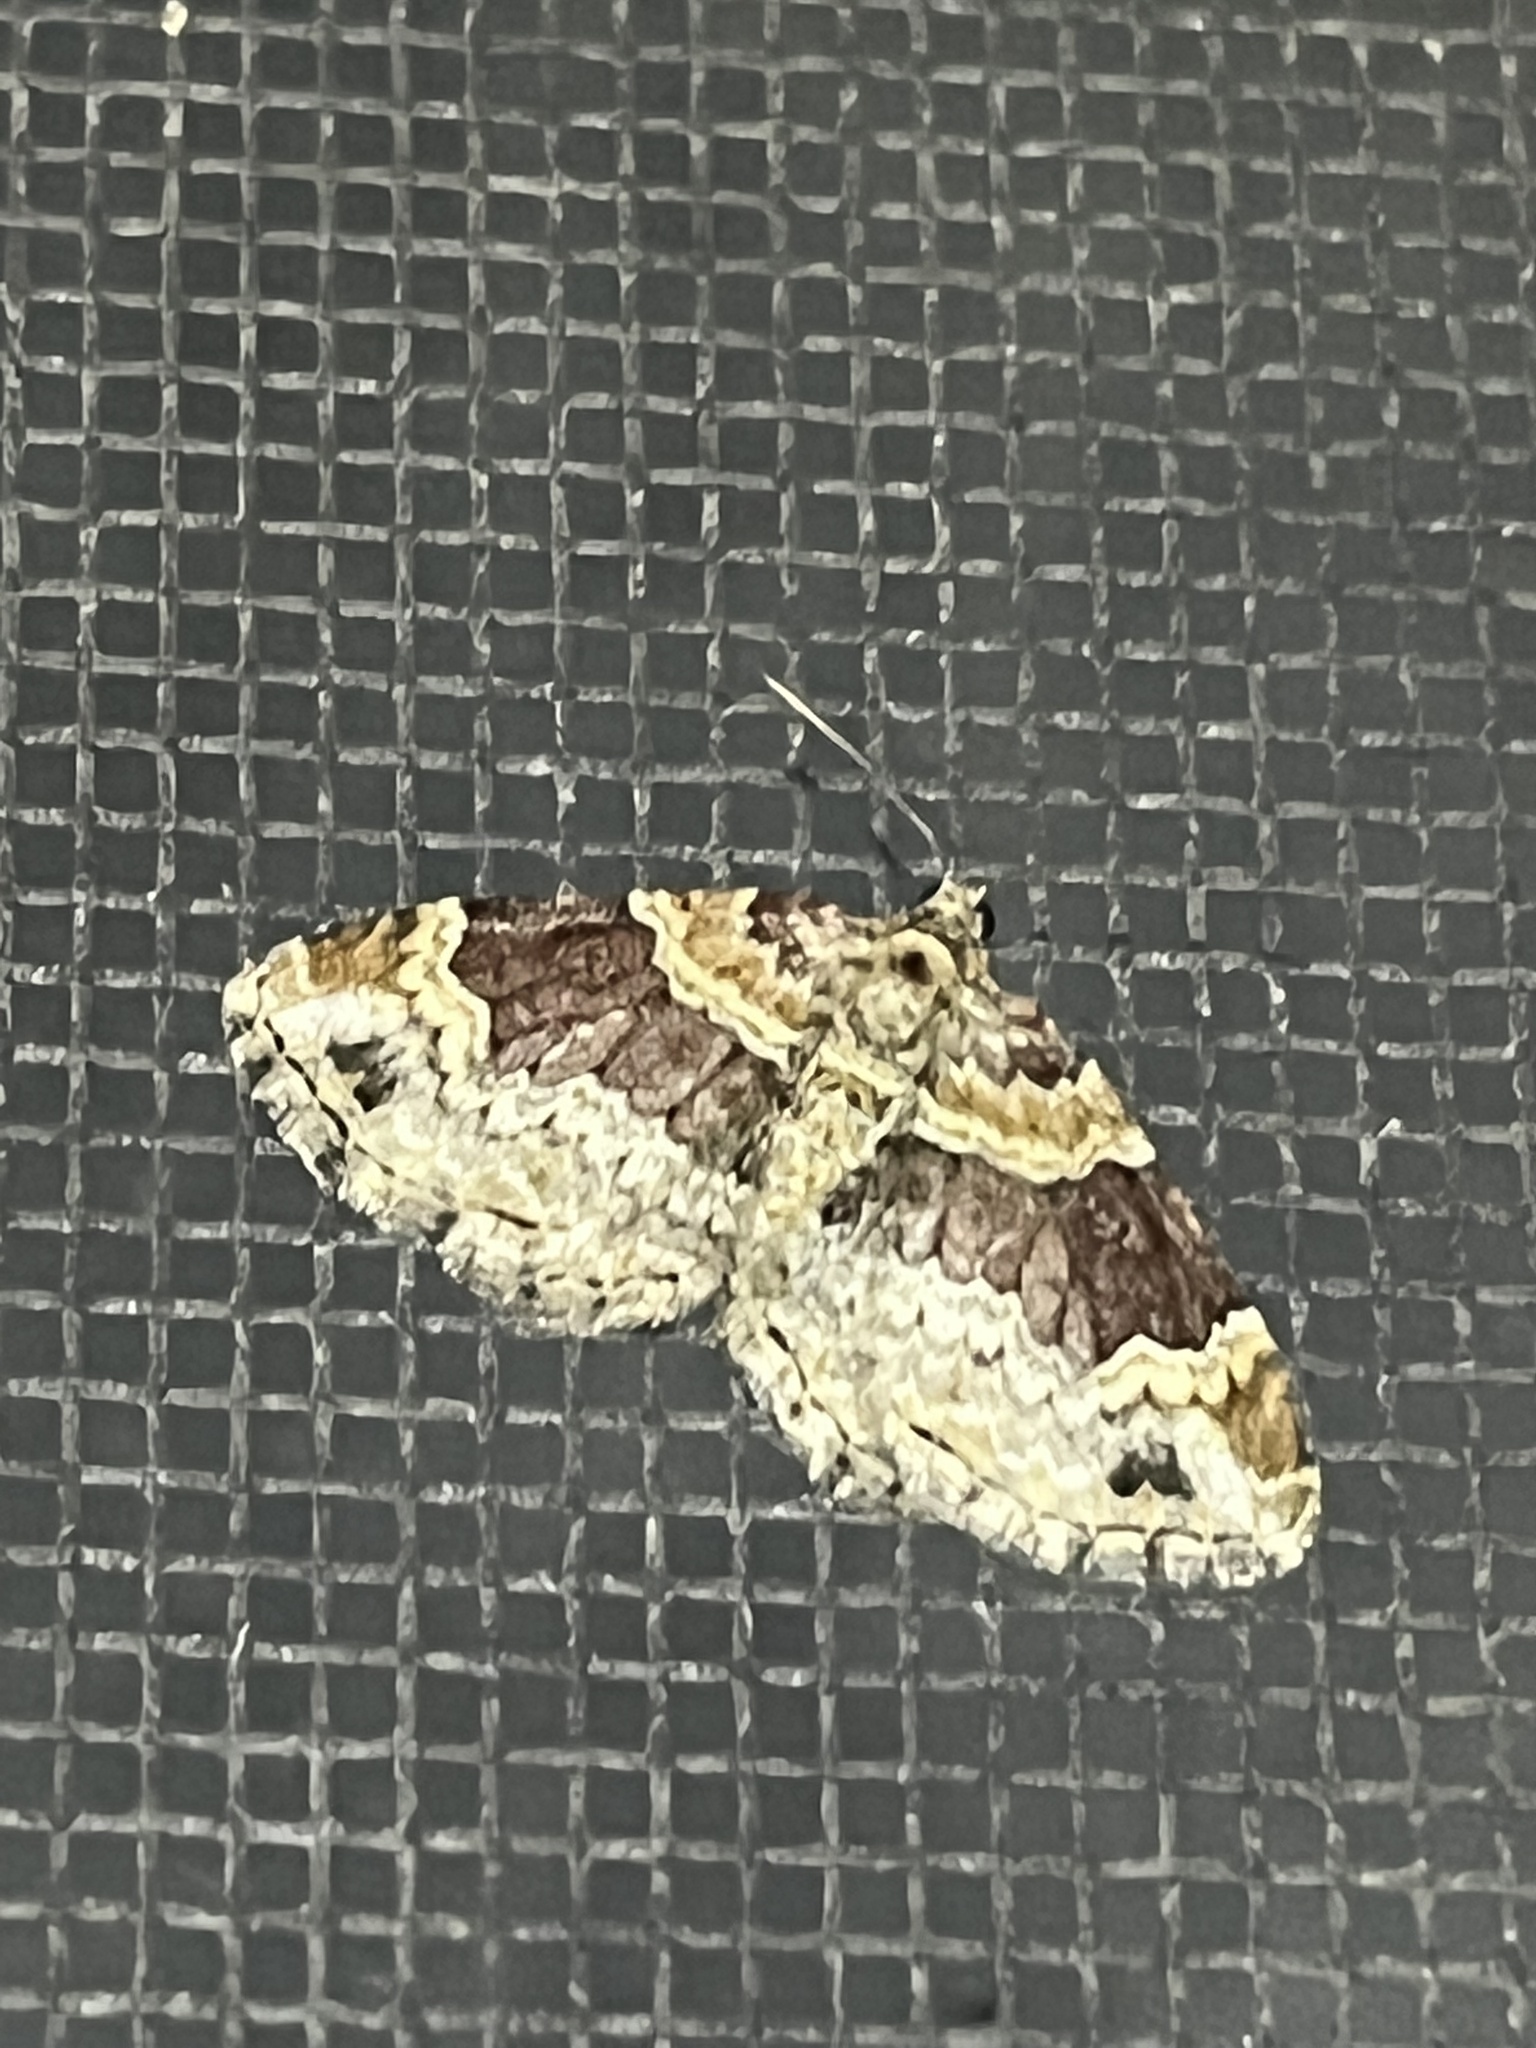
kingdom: Animalia
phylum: Arthropoda
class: Insecta
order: Lepidoptera
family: Geometridae
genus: Xanthorhoe
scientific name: Xanthorhoe ferrugata
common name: Dark-barred twin-spot carpet
